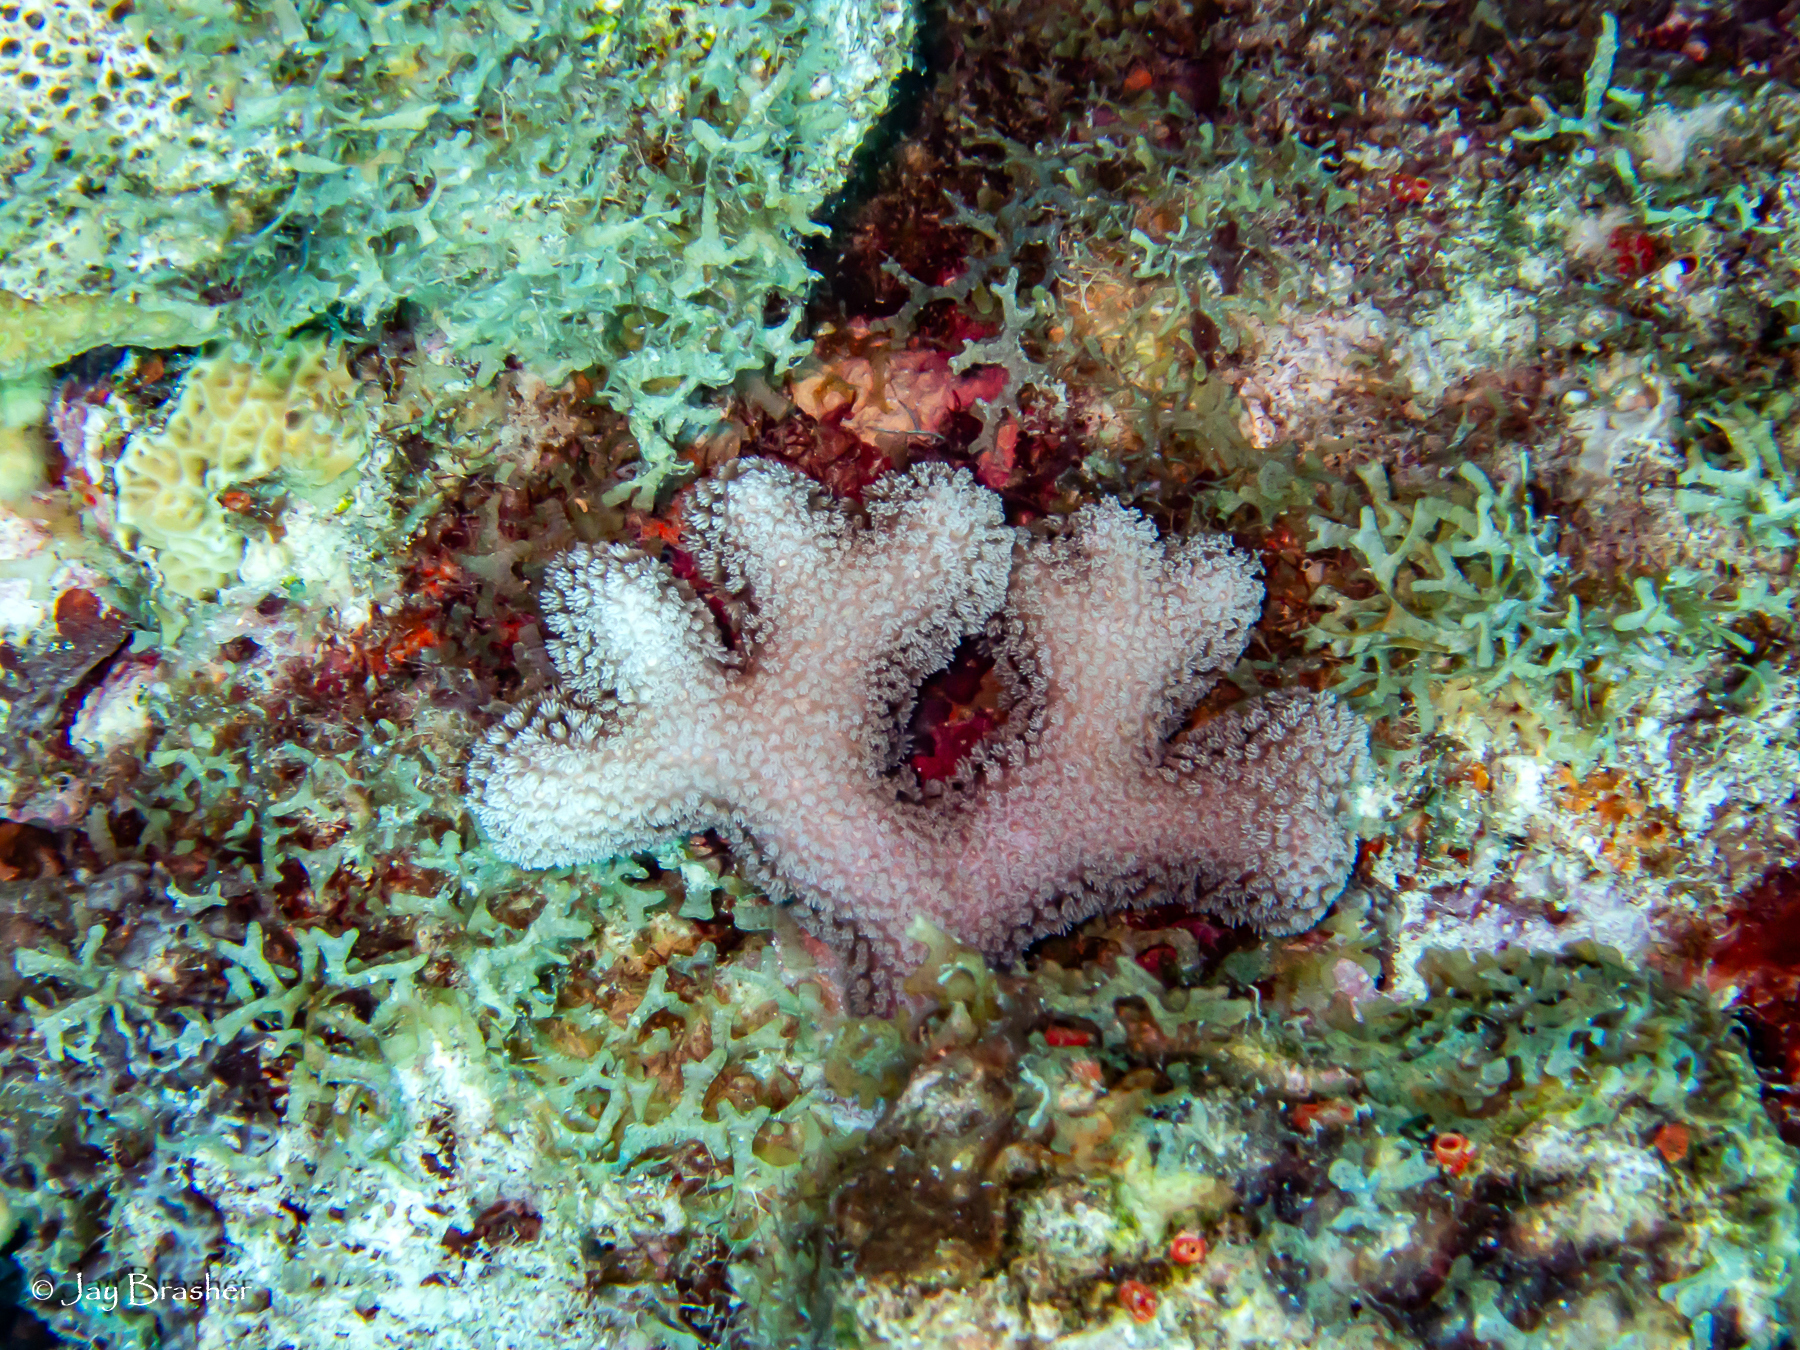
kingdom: Animalia
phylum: Cnidaria
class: Anthozoa
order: Scleractinia
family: Poritidae
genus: Porites
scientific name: Porites porites
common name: Finger coral
